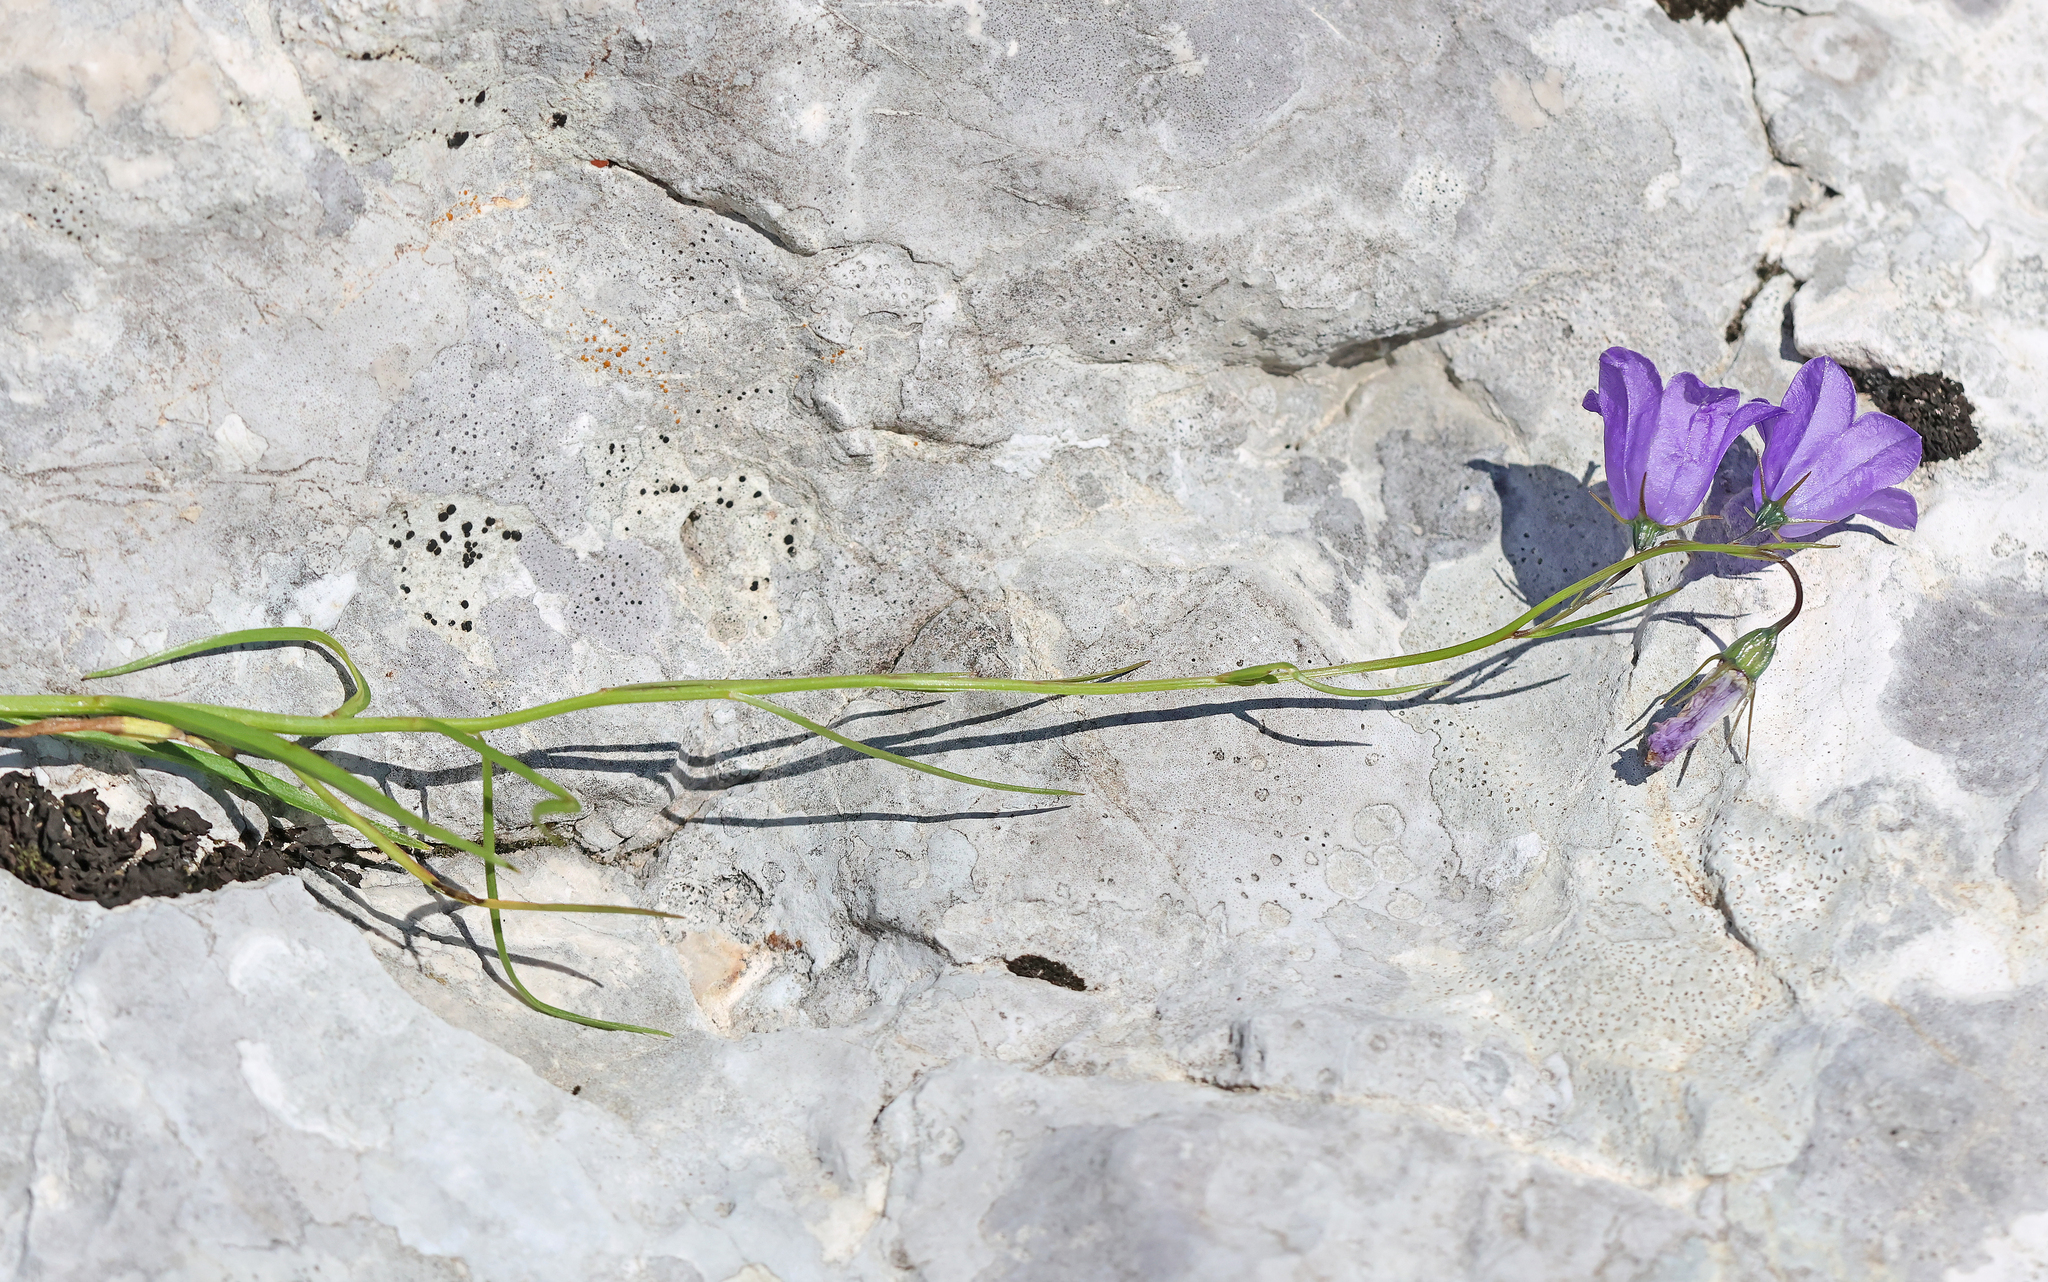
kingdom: Plantae
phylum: Tracheophyta
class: Magnoliopsida
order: Asterales
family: Campanulaceae
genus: Campanula
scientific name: Campanula scheuchzeri
